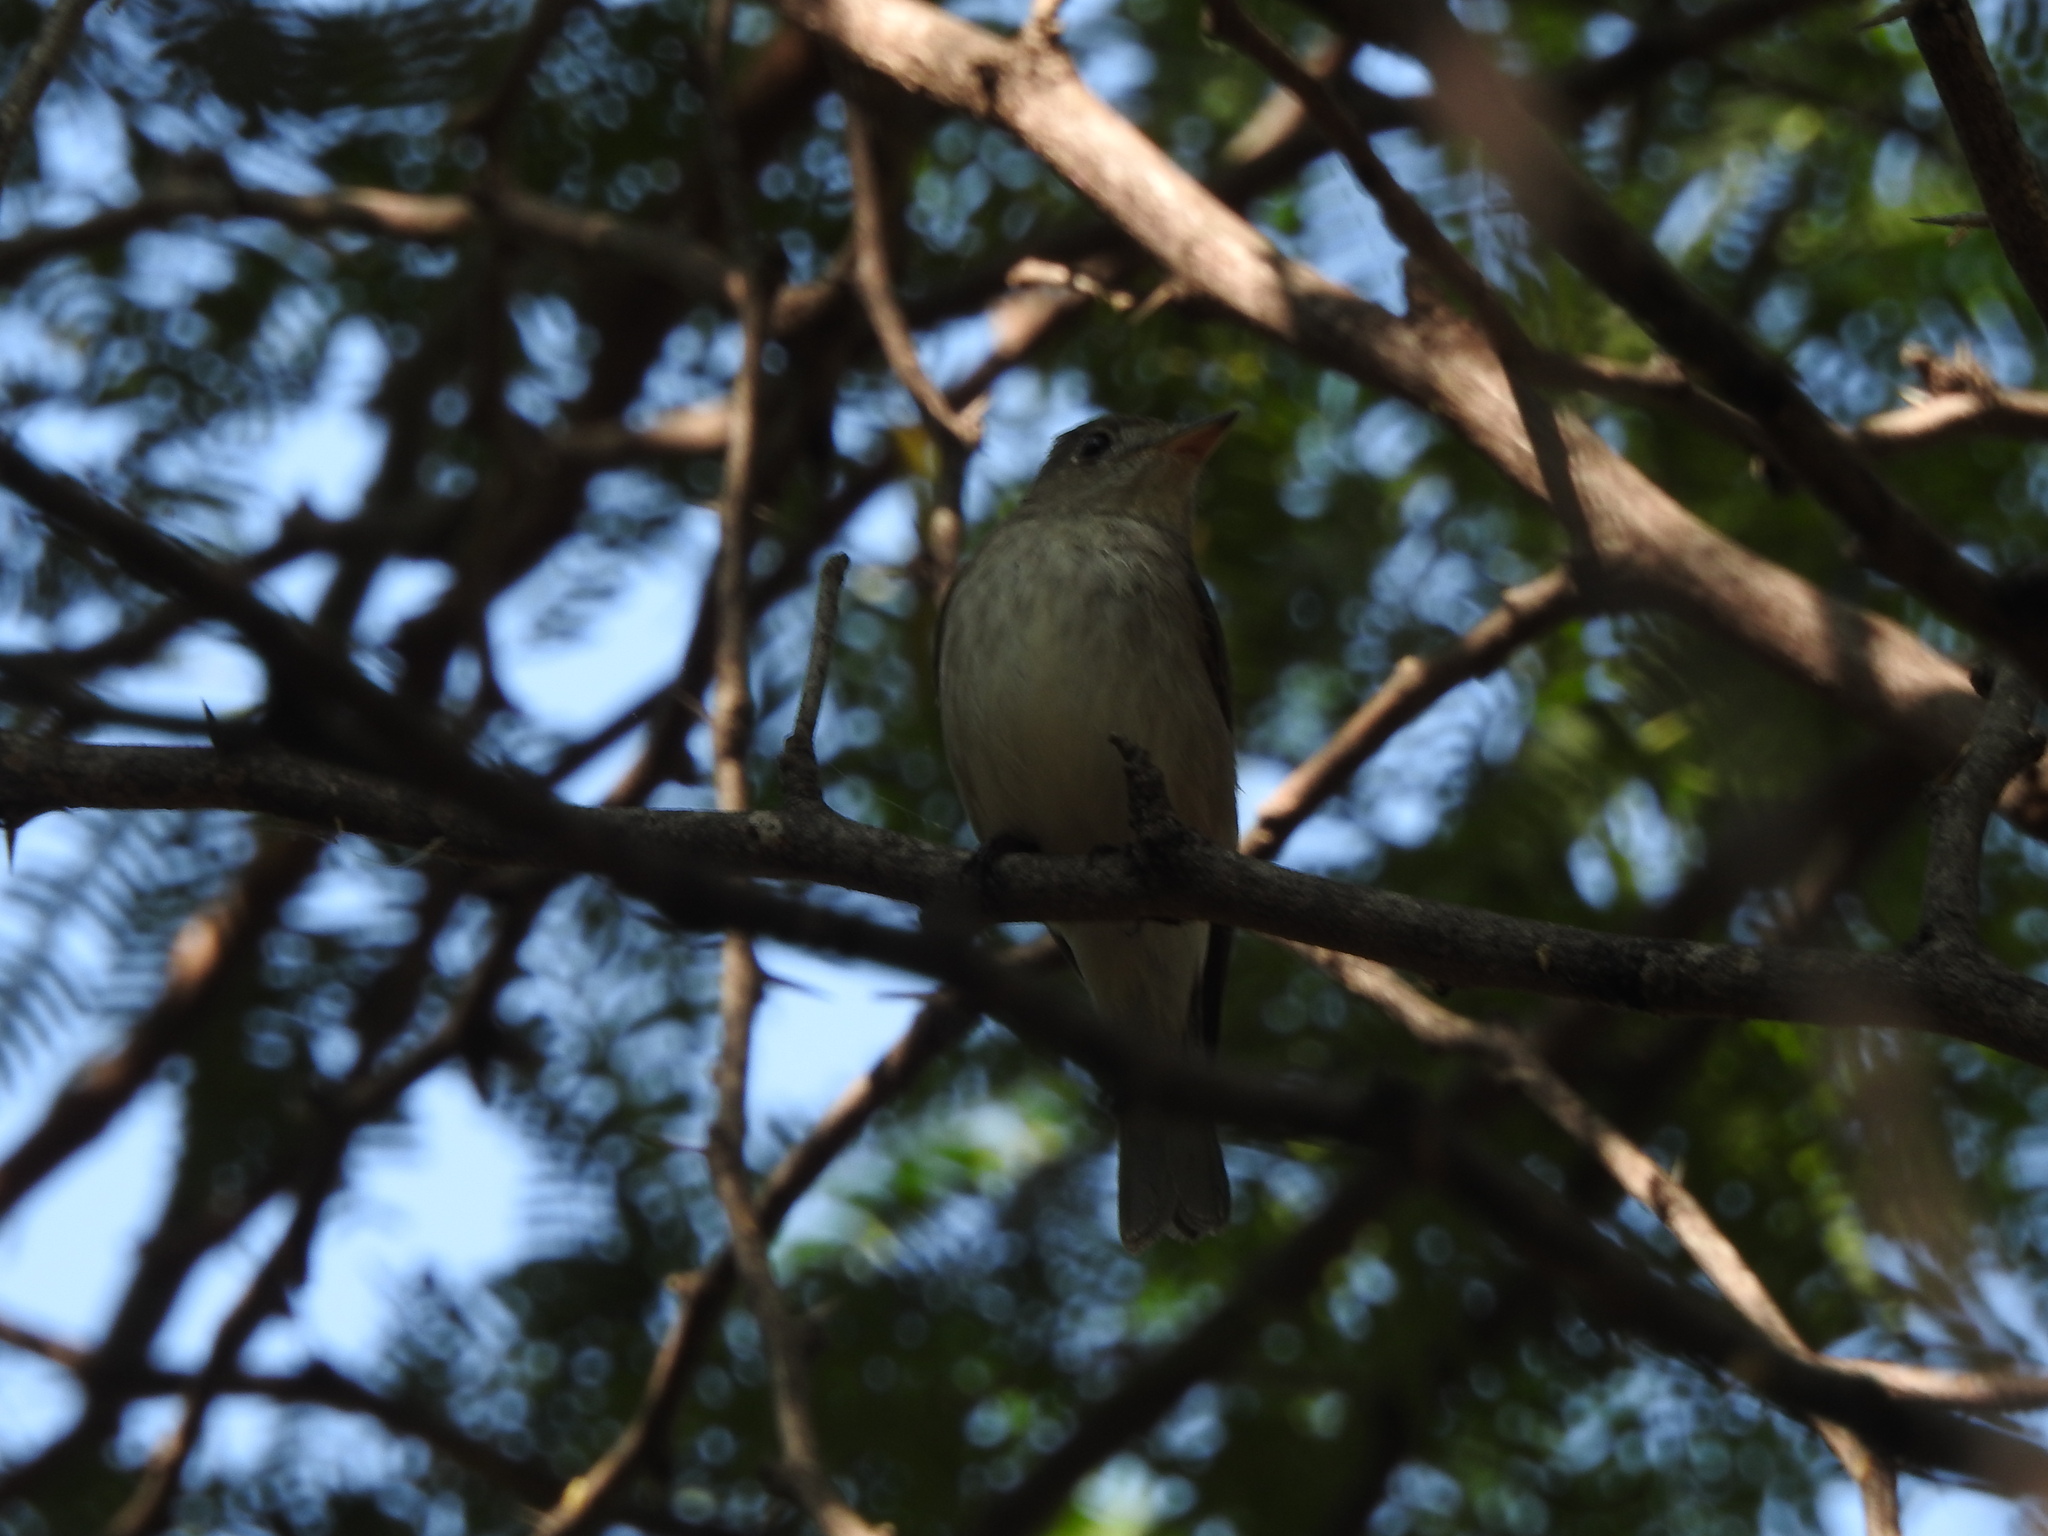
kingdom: Animalia
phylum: Chordata
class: Aves
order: Passeriformes
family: Muscicapidae
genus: Muscicapa
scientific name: Muscicapa latirostris
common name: Asian brown flycatcher
